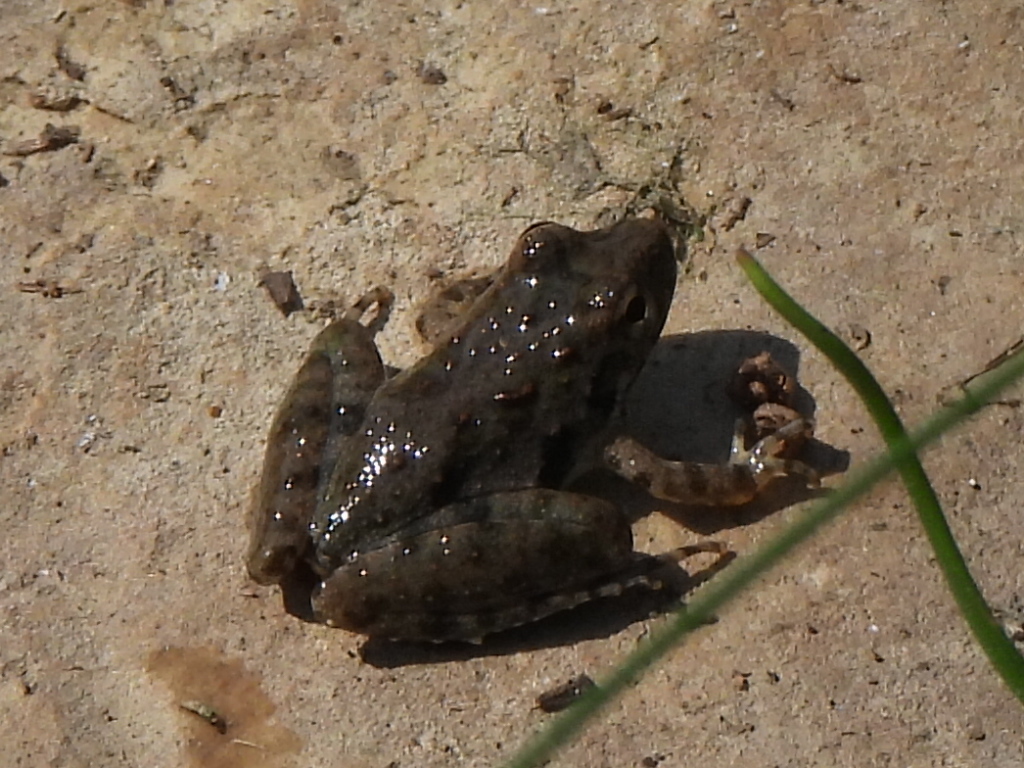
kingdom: Animalia
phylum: Chordata
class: Amphibia
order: Anura
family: Hylidae
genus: Acris
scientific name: Acris blanchardi
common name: Blanchard's cricket frog
